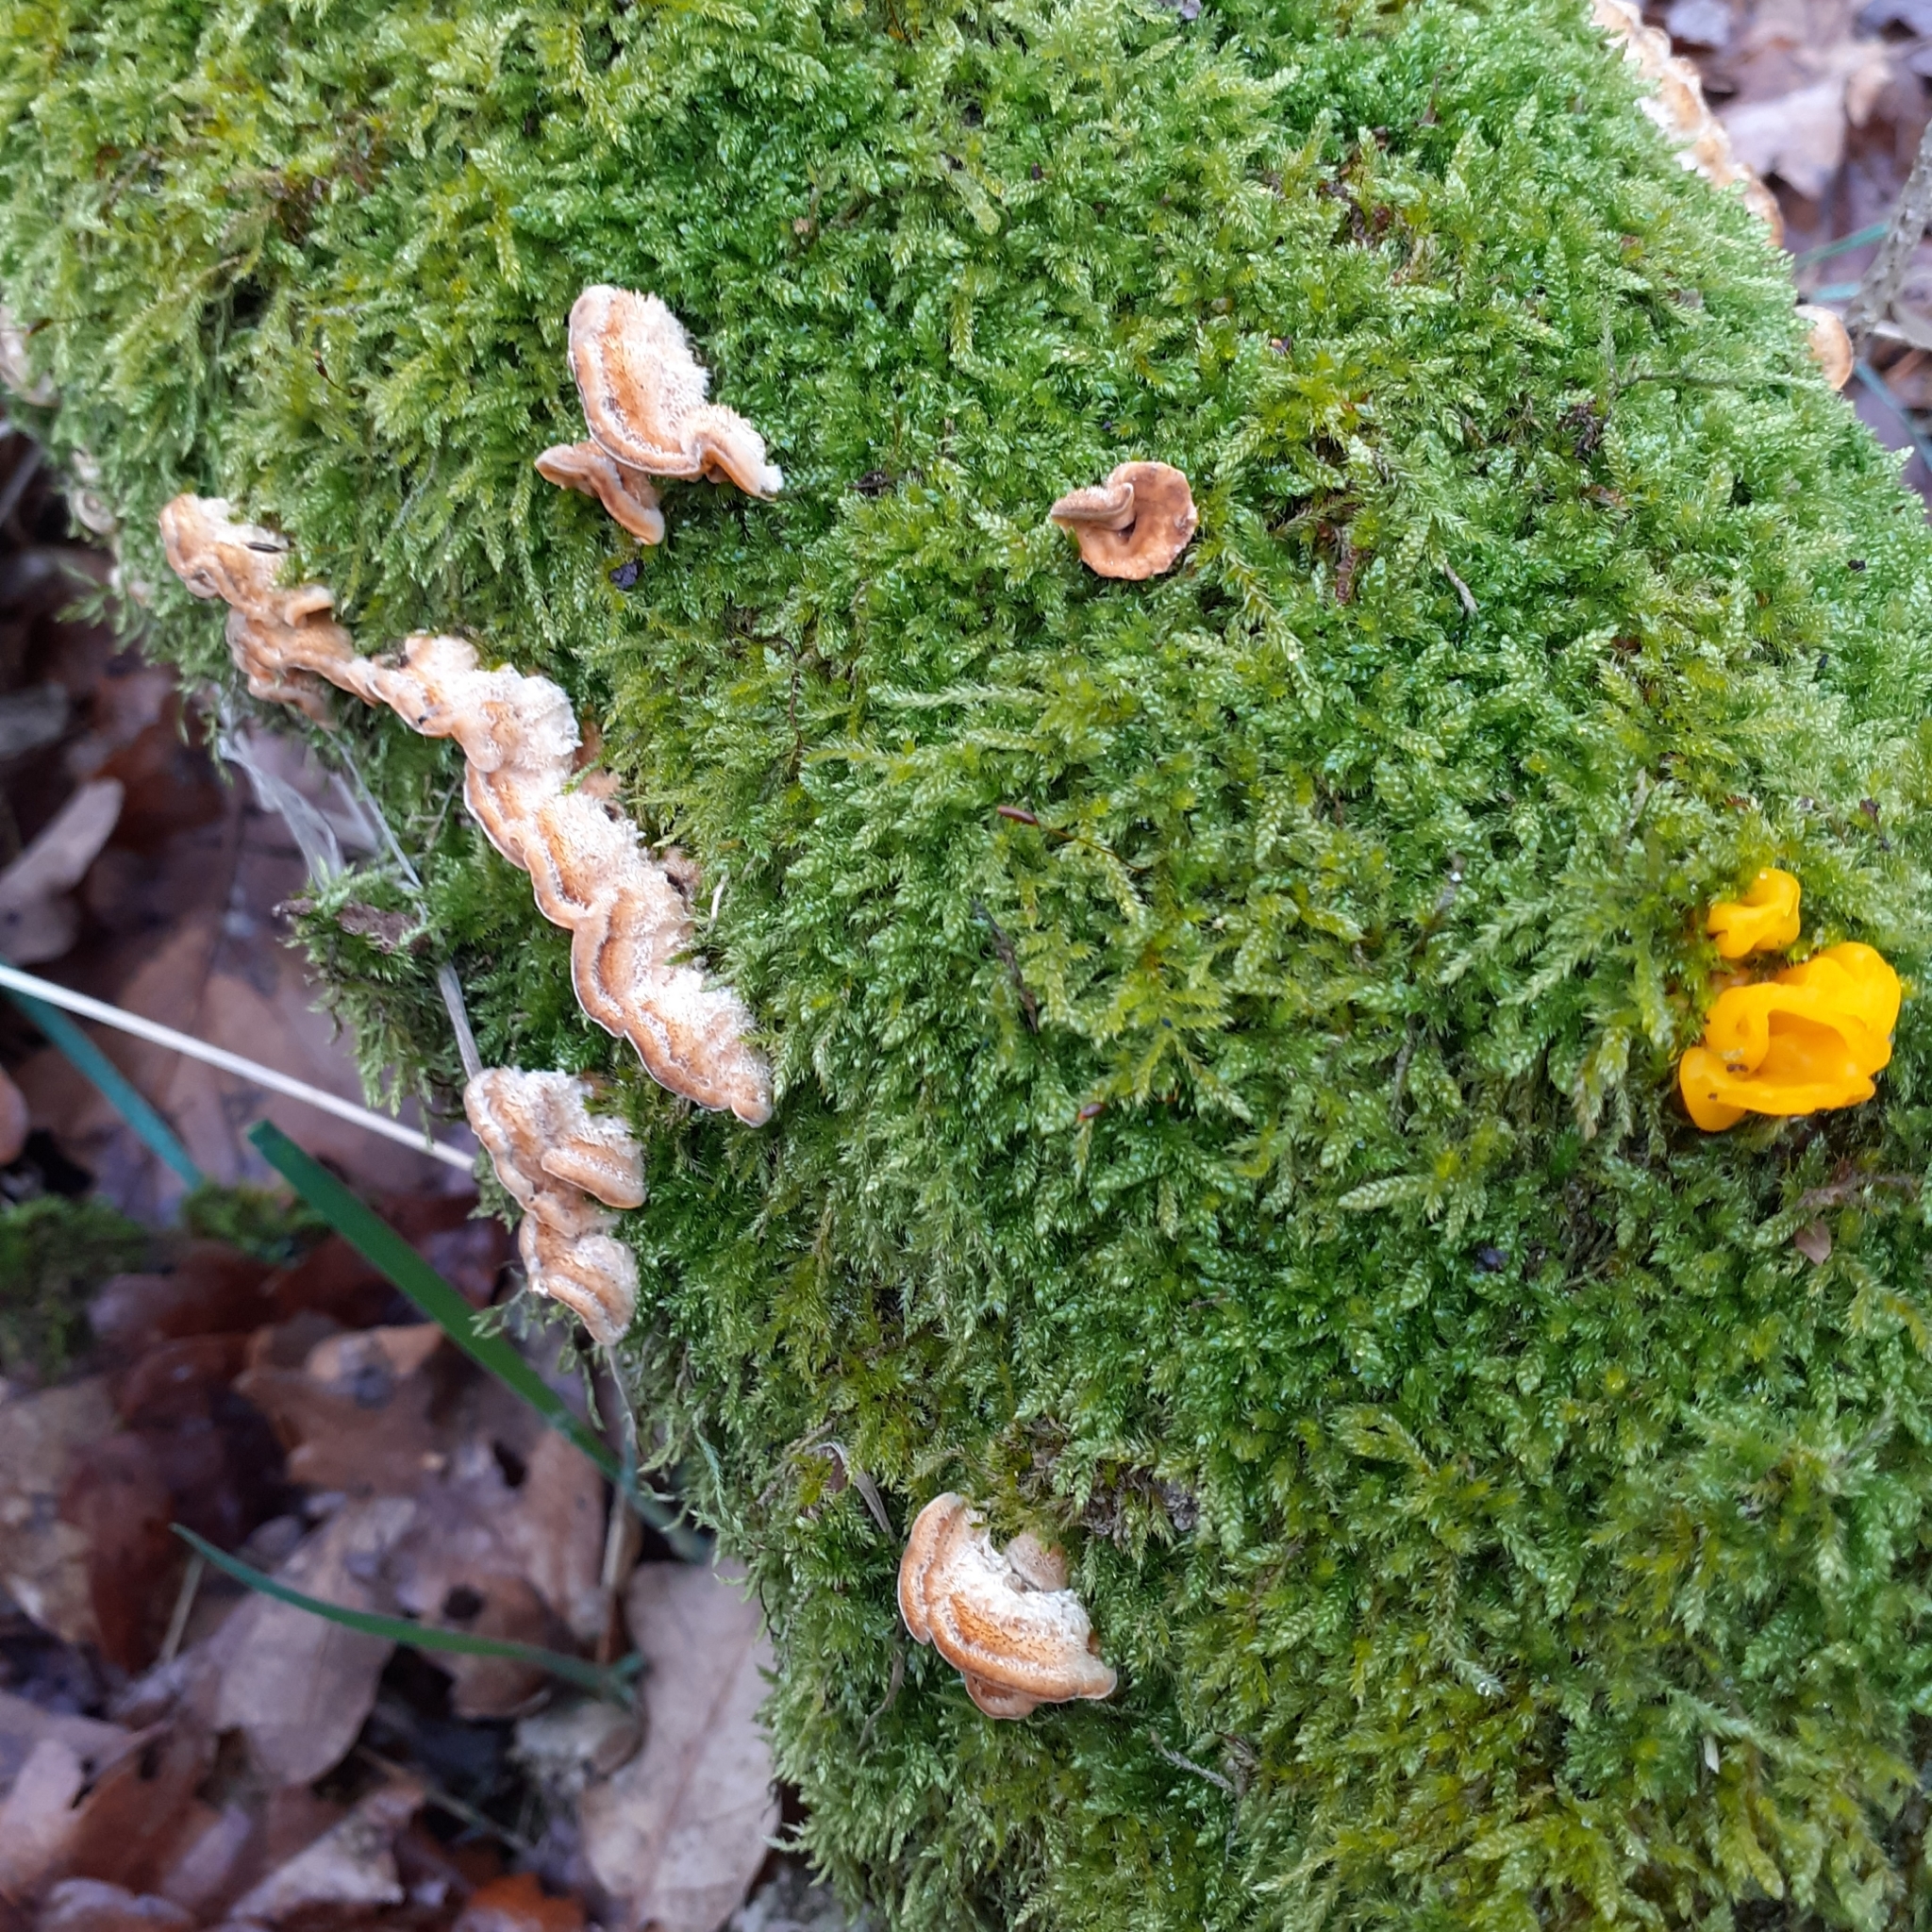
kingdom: Fungi
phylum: Basidiomycota
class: Agaricomycetes
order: Russulales
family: Stereaceae
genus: Stereum
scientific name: Stereum hirsutum
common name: Hairy curtain crust
